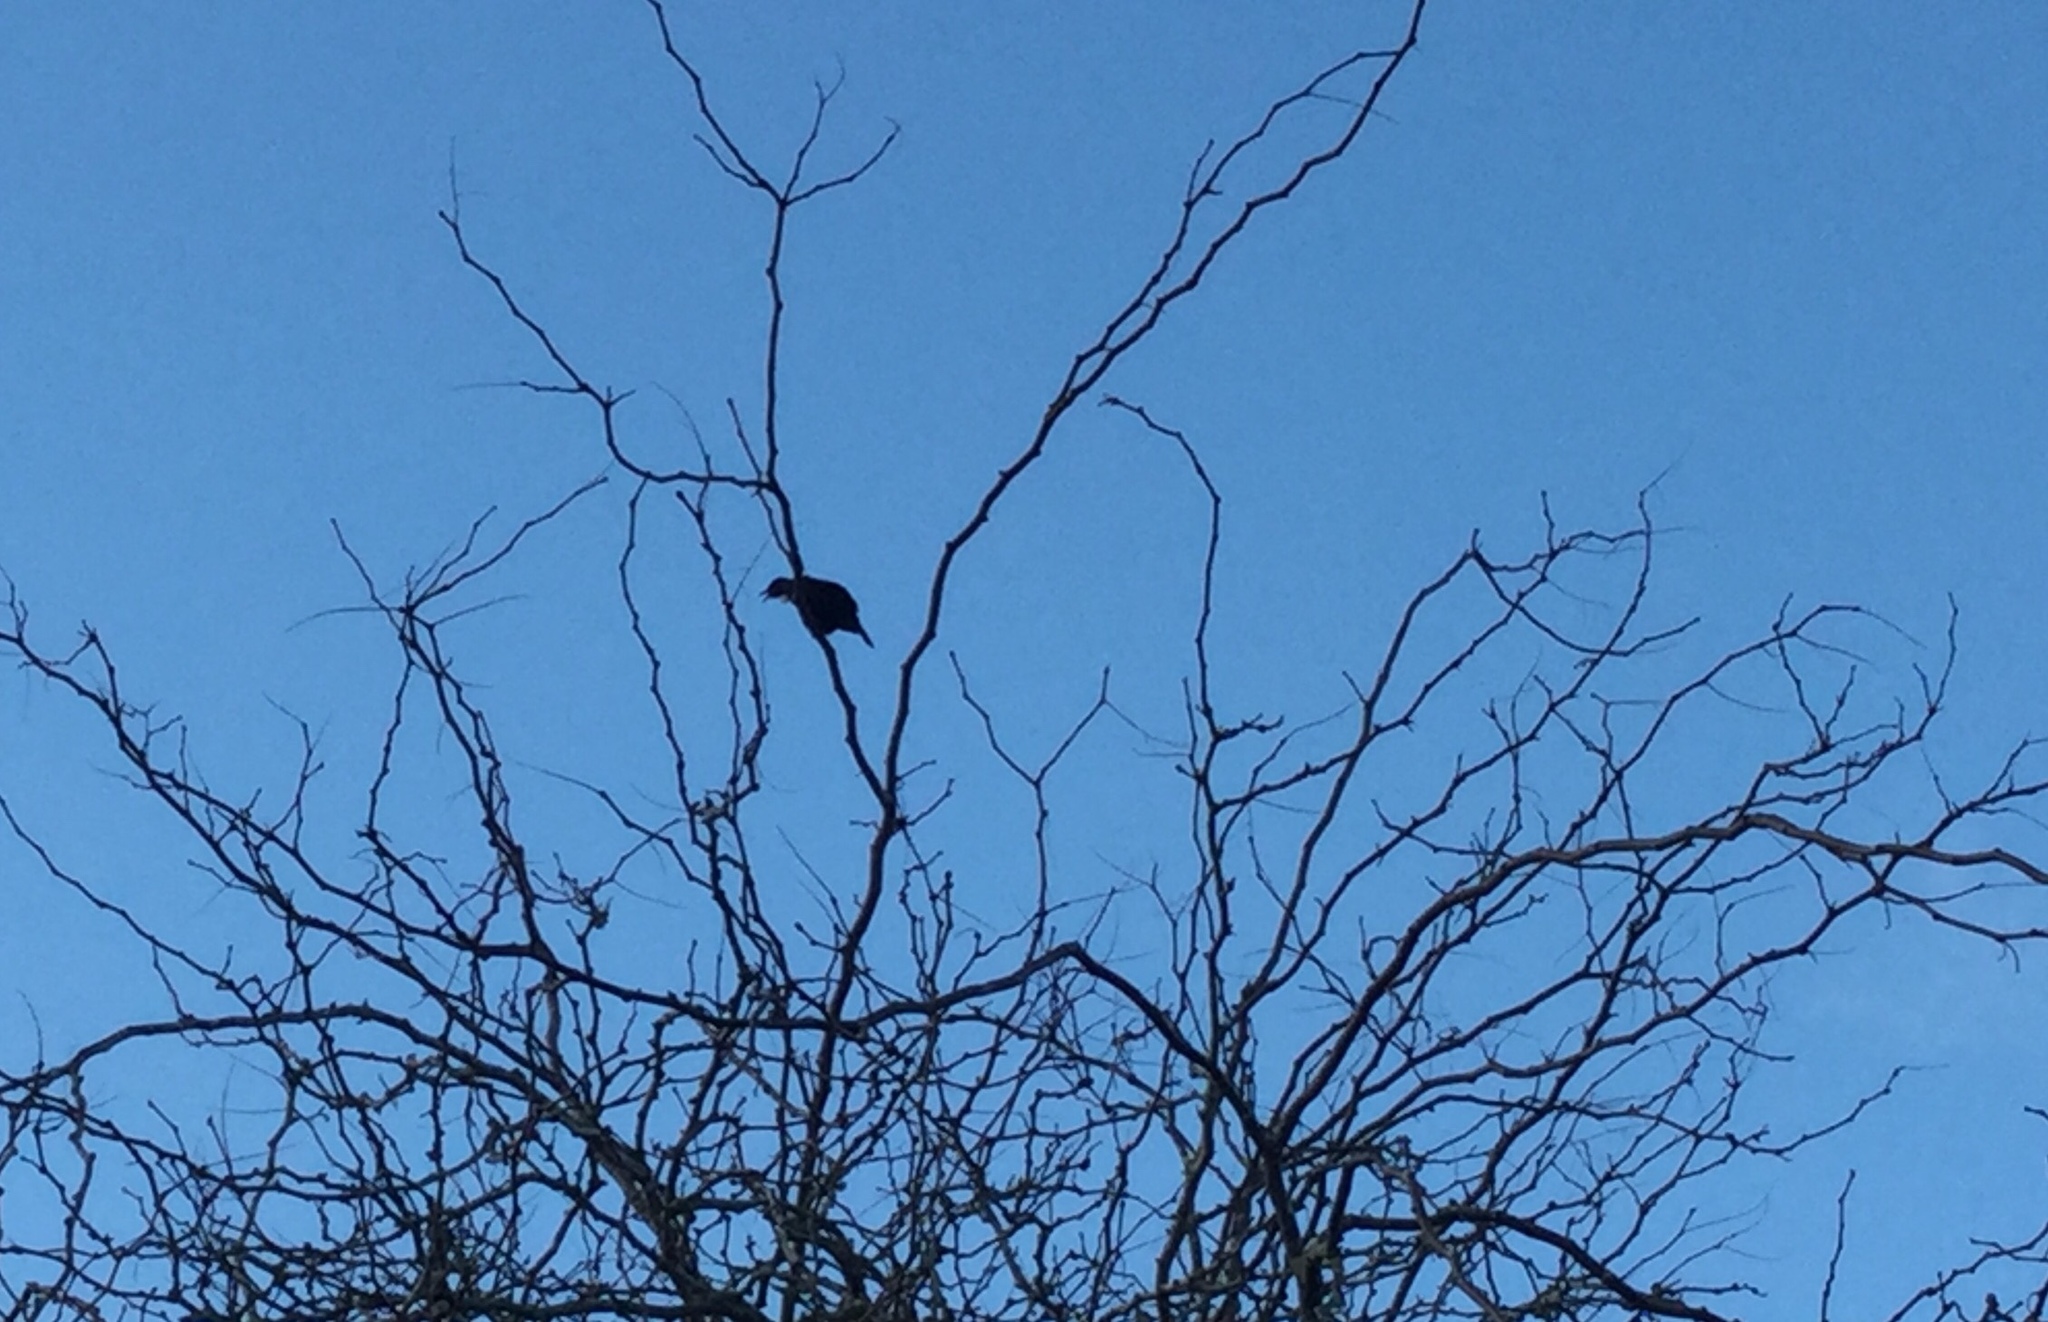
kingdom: Animalia
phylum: Chordata
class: Aves
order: Passeriformes
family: Meliphagidae
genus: Prosthemadera
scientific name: Prosthemadera novaeseelandiae
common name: Tui
